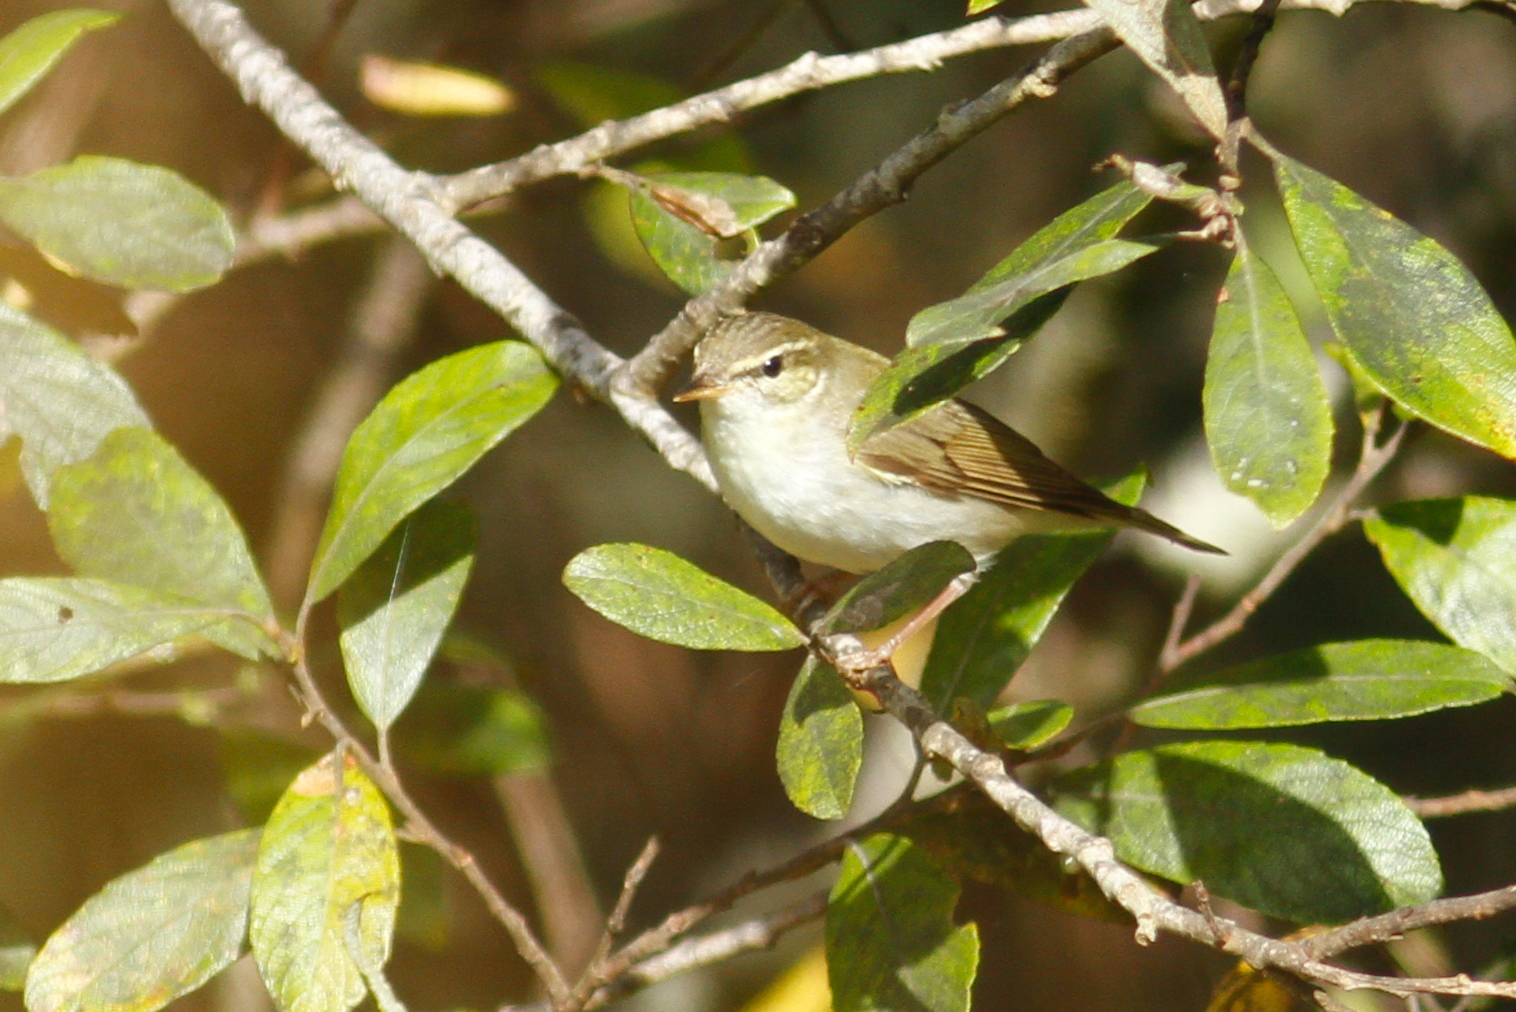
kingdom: Animalia
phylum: Chordata
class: Aves
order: Passeriformes
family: Phylloscopidae
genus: Phylloscopus
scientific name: Phylloscopus borealis
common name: Arctic warbler
